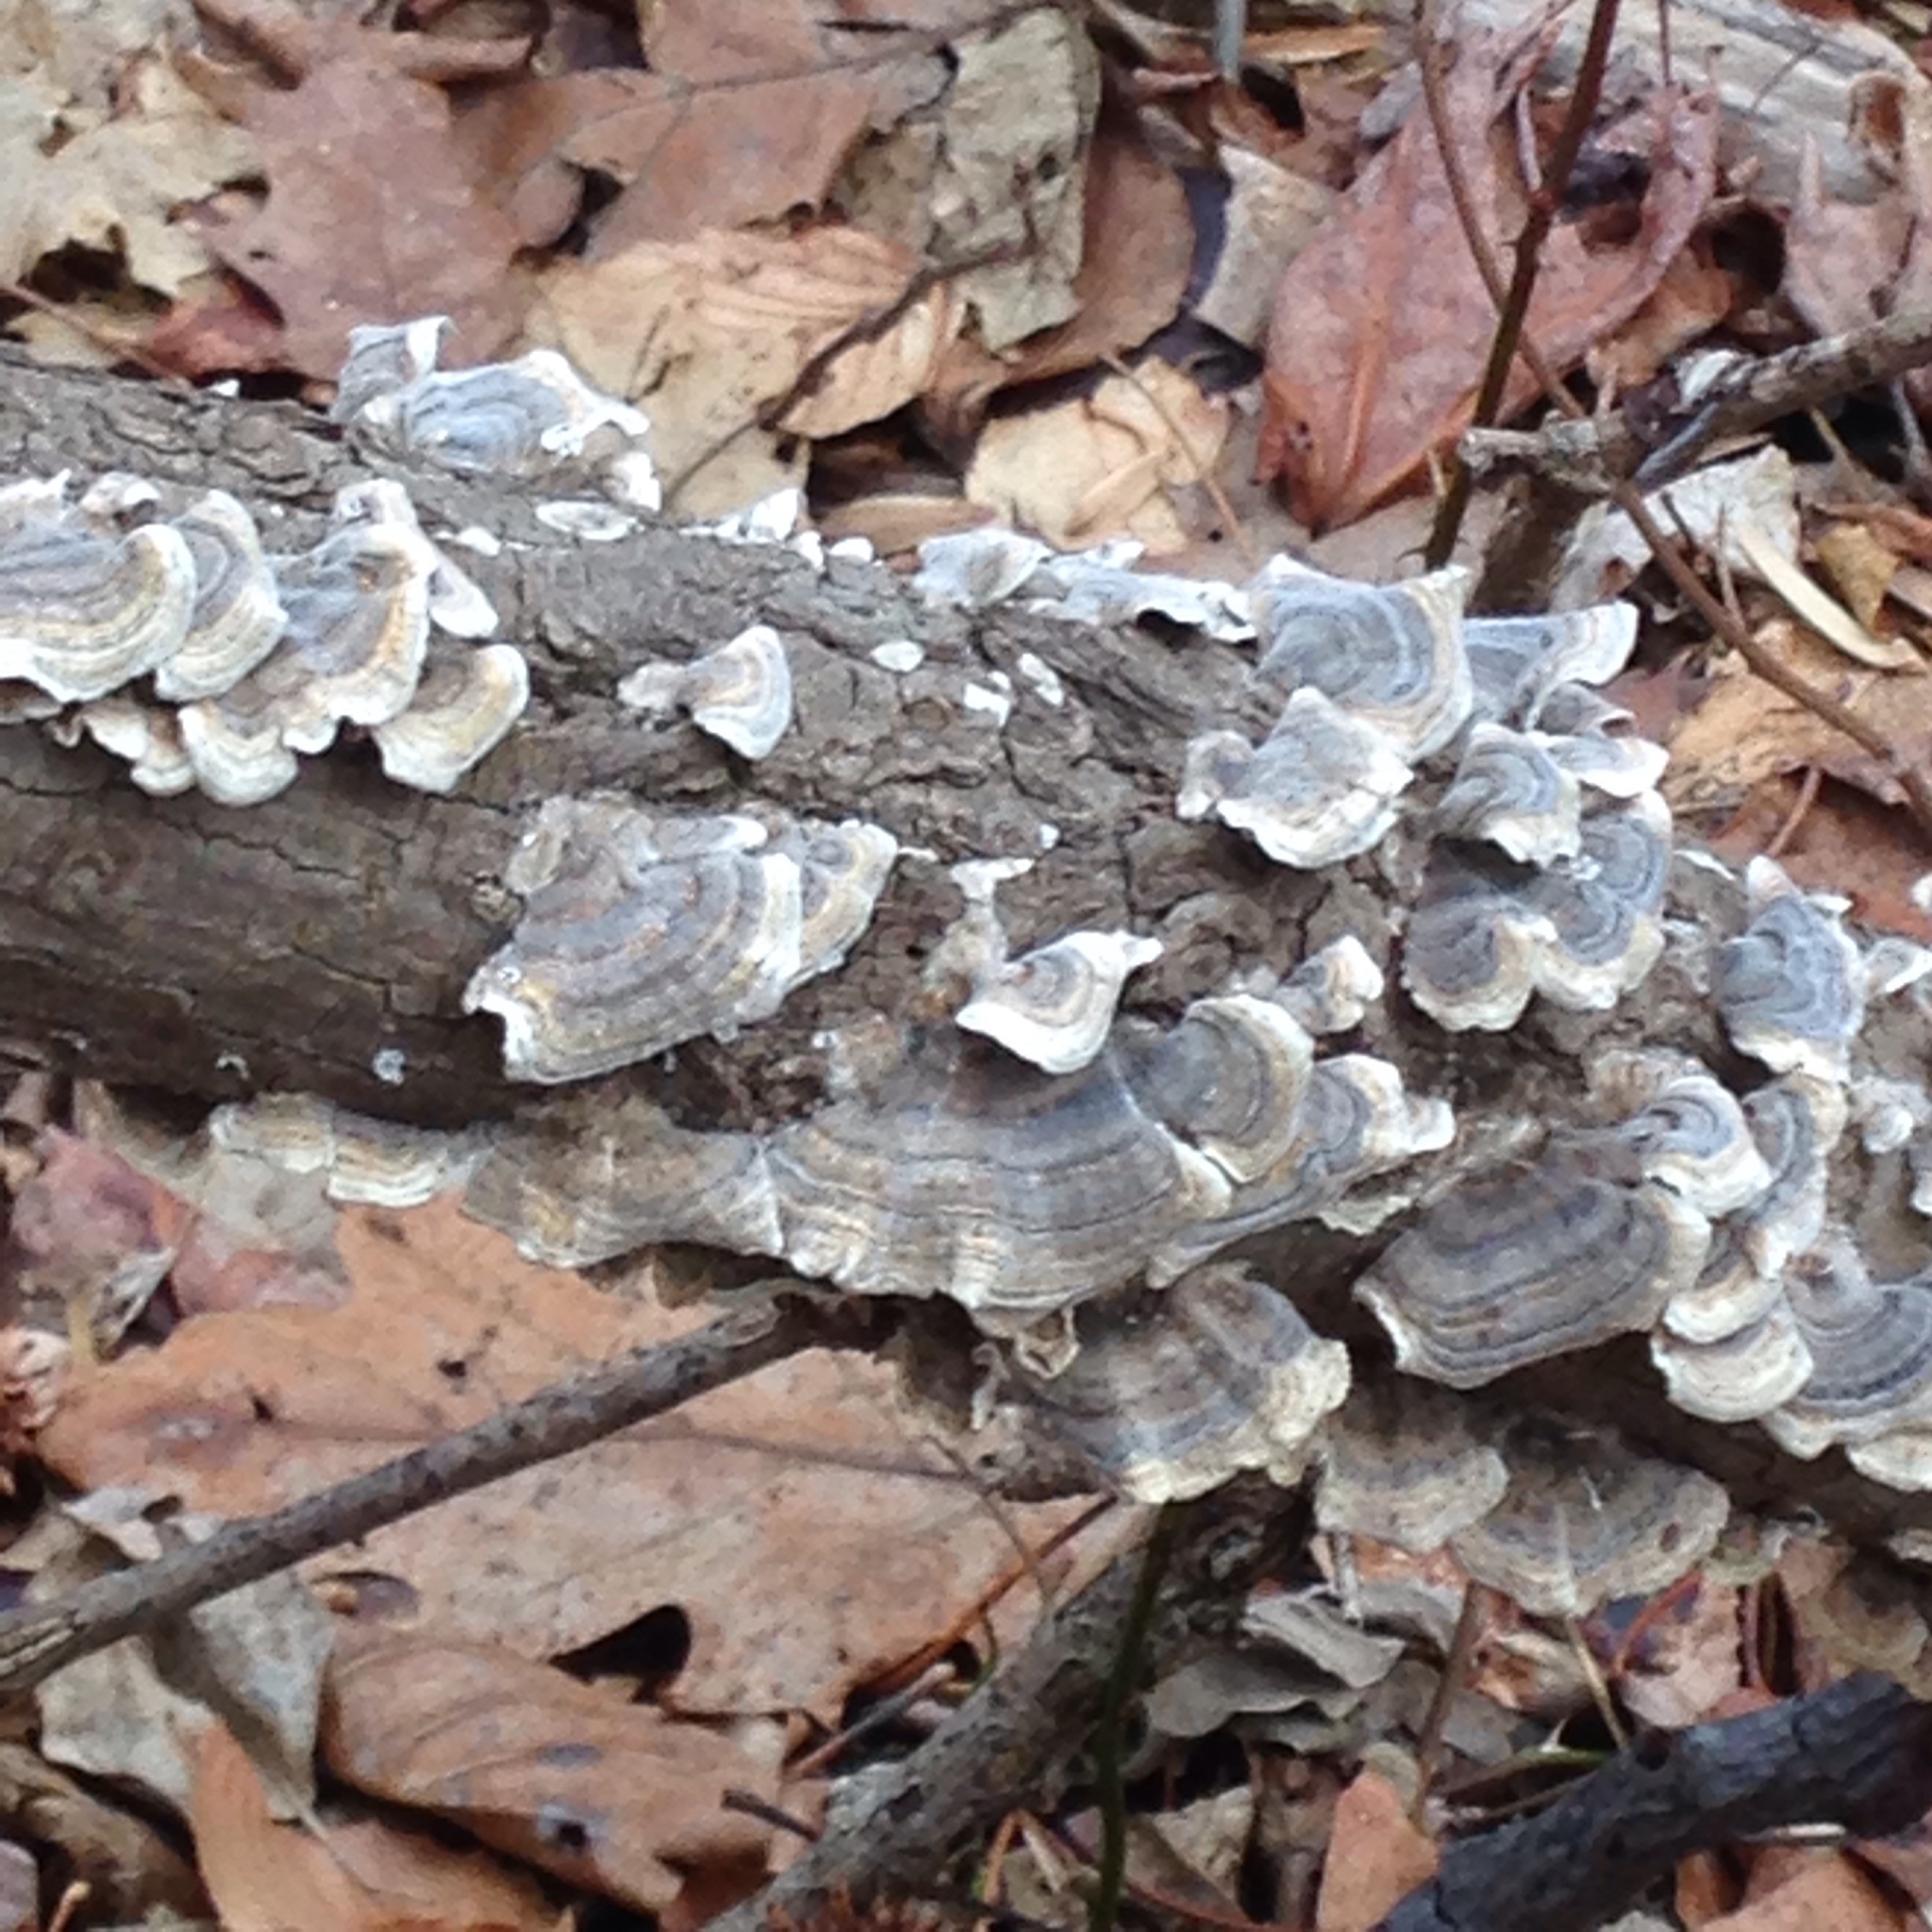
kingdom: Fungi
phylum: Basidiomycota
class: Agaricomycetes
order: Polyporales
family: Polyporaceae
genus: Trametes
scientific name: Trametes versicolor
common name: Turkeytail
